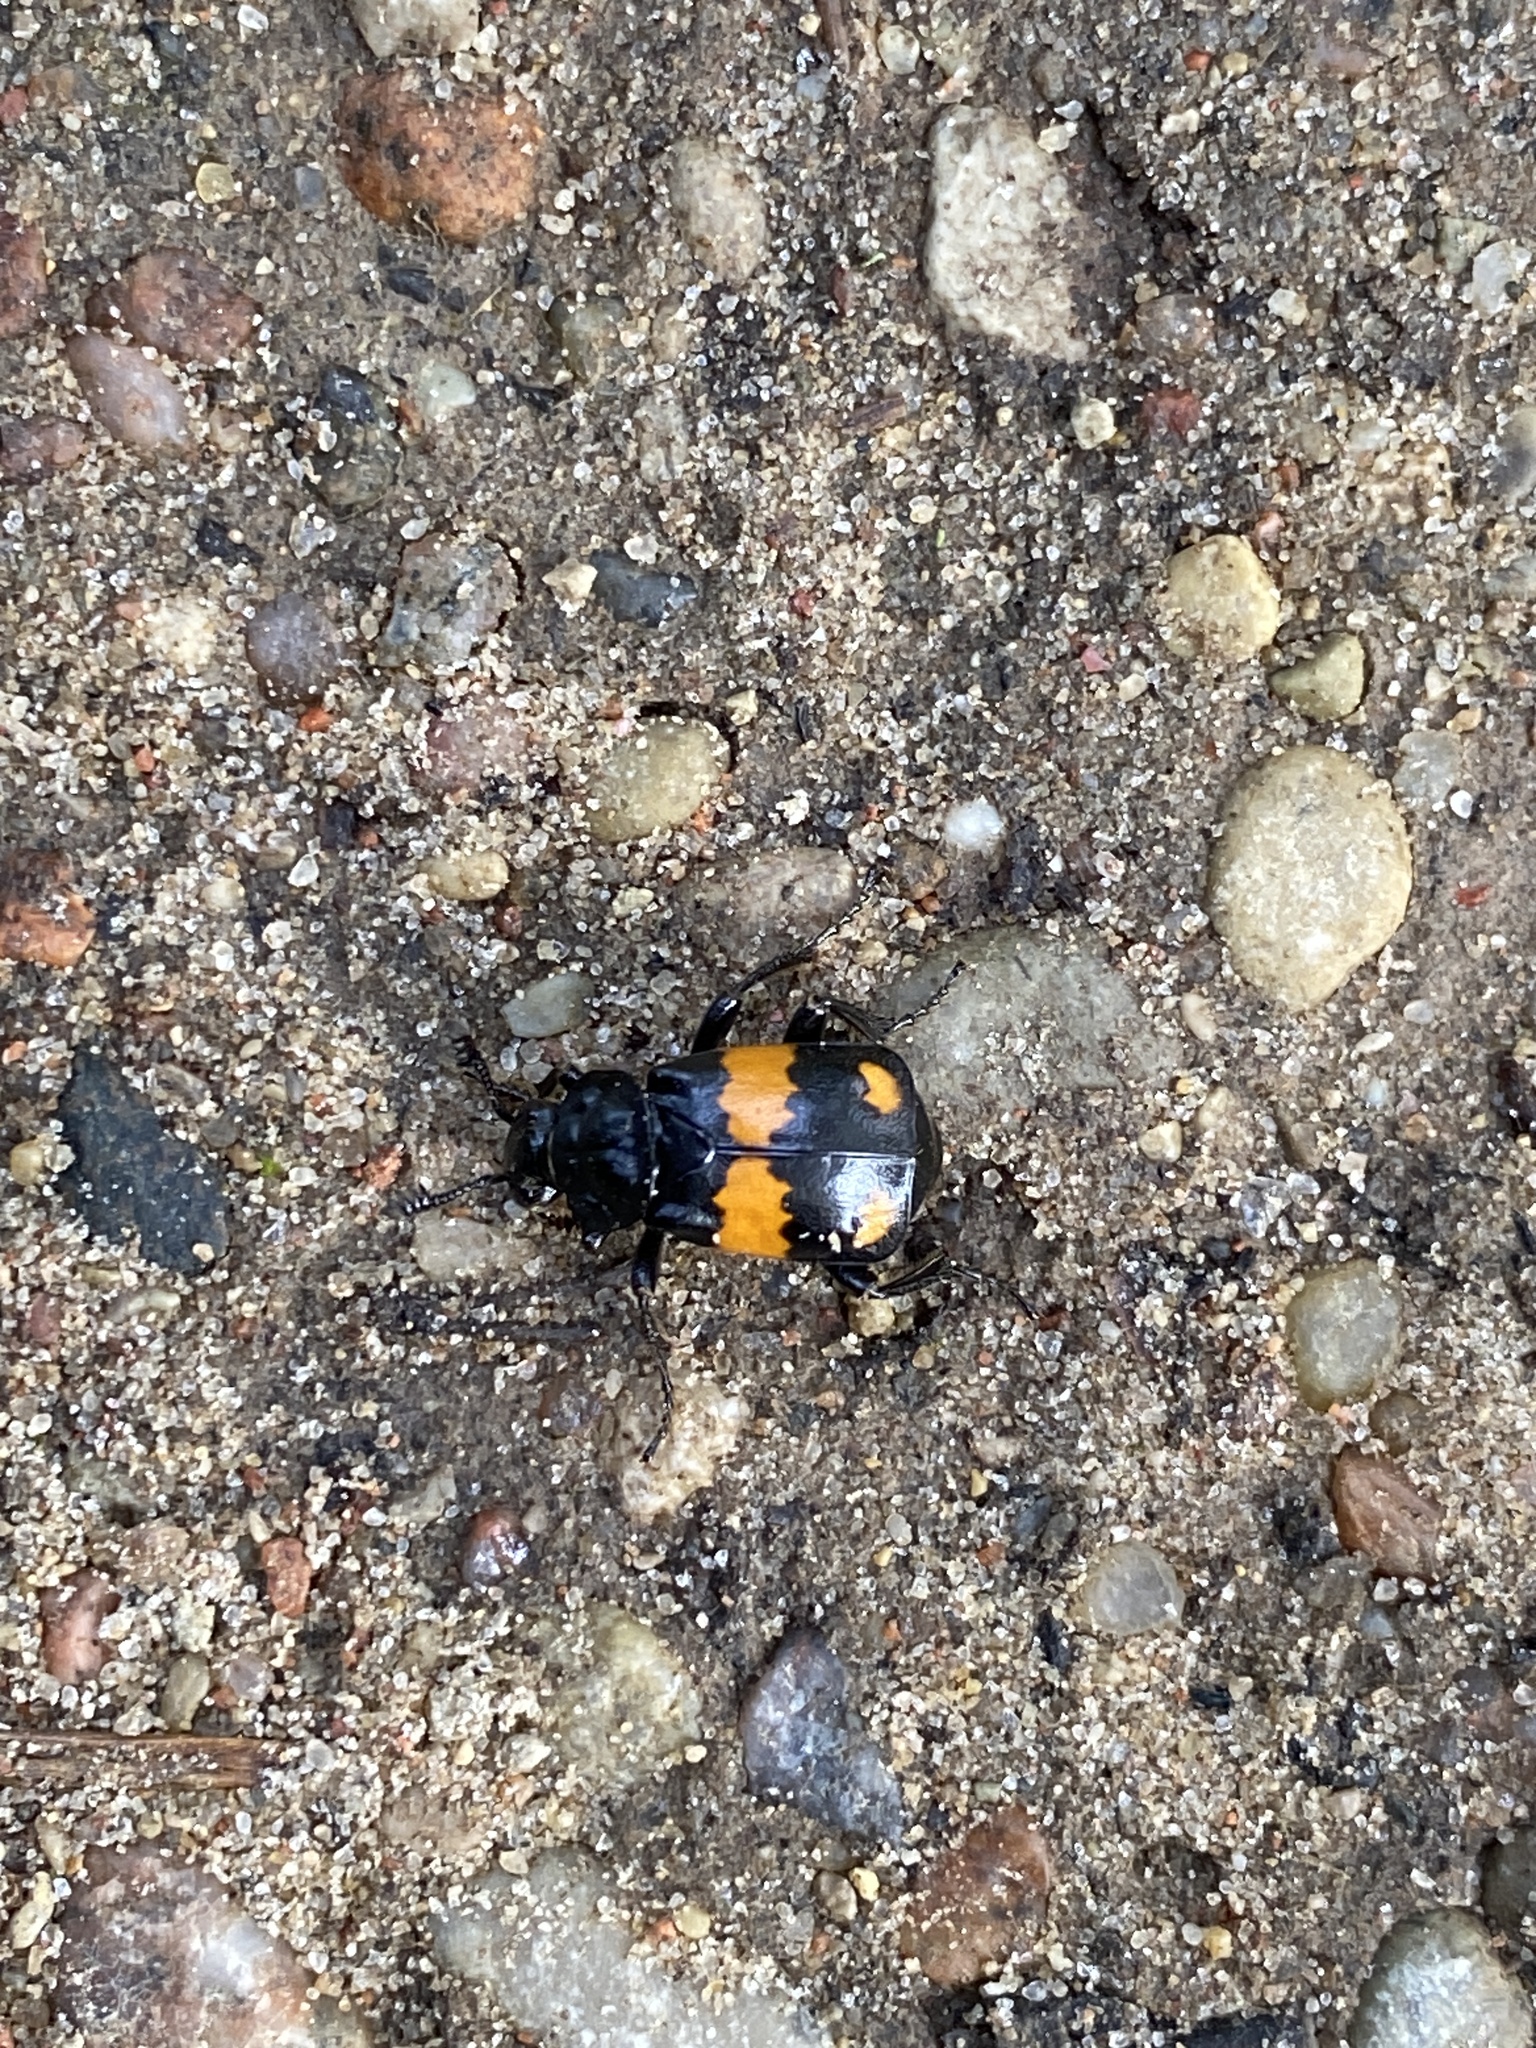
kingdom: Animalia
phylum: Arthropoda
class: Insecta
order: Coleoptera
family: Staphylinidae
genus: Nicrophorus
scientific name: Nicrophorus vespilloides
